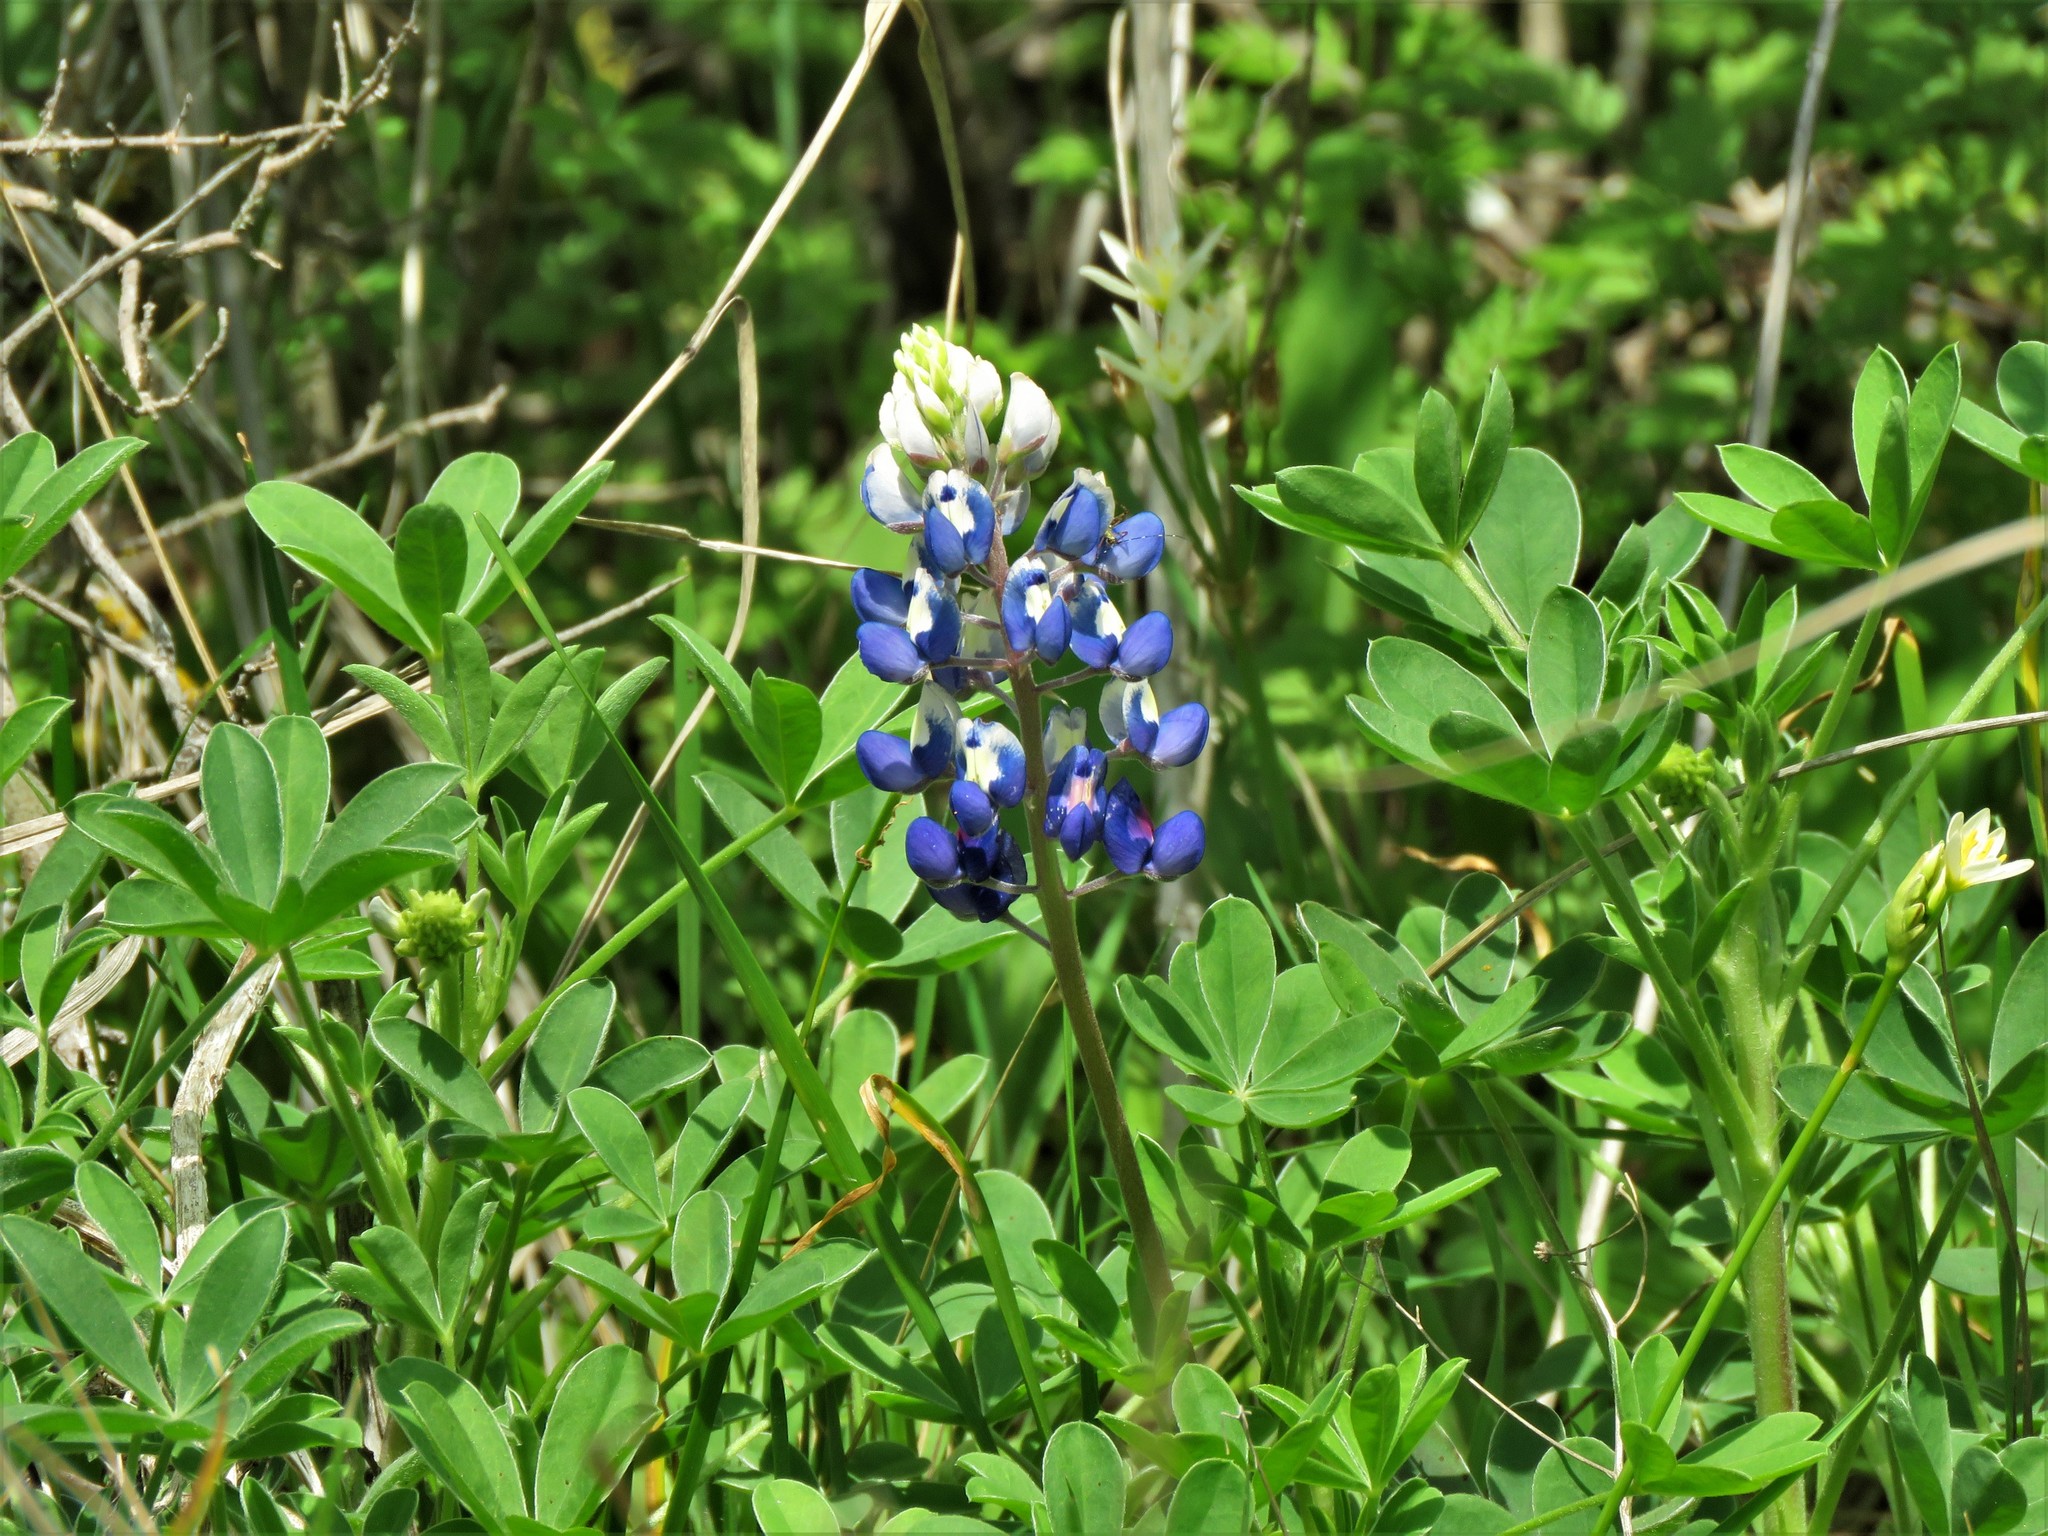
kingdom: Plantae
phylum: Tracheophyta
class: Magnoliopsida
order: Fabales
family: Fabaceae
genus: Lupinus
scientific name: Lupinus texensis
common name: Texas bluebonnet
